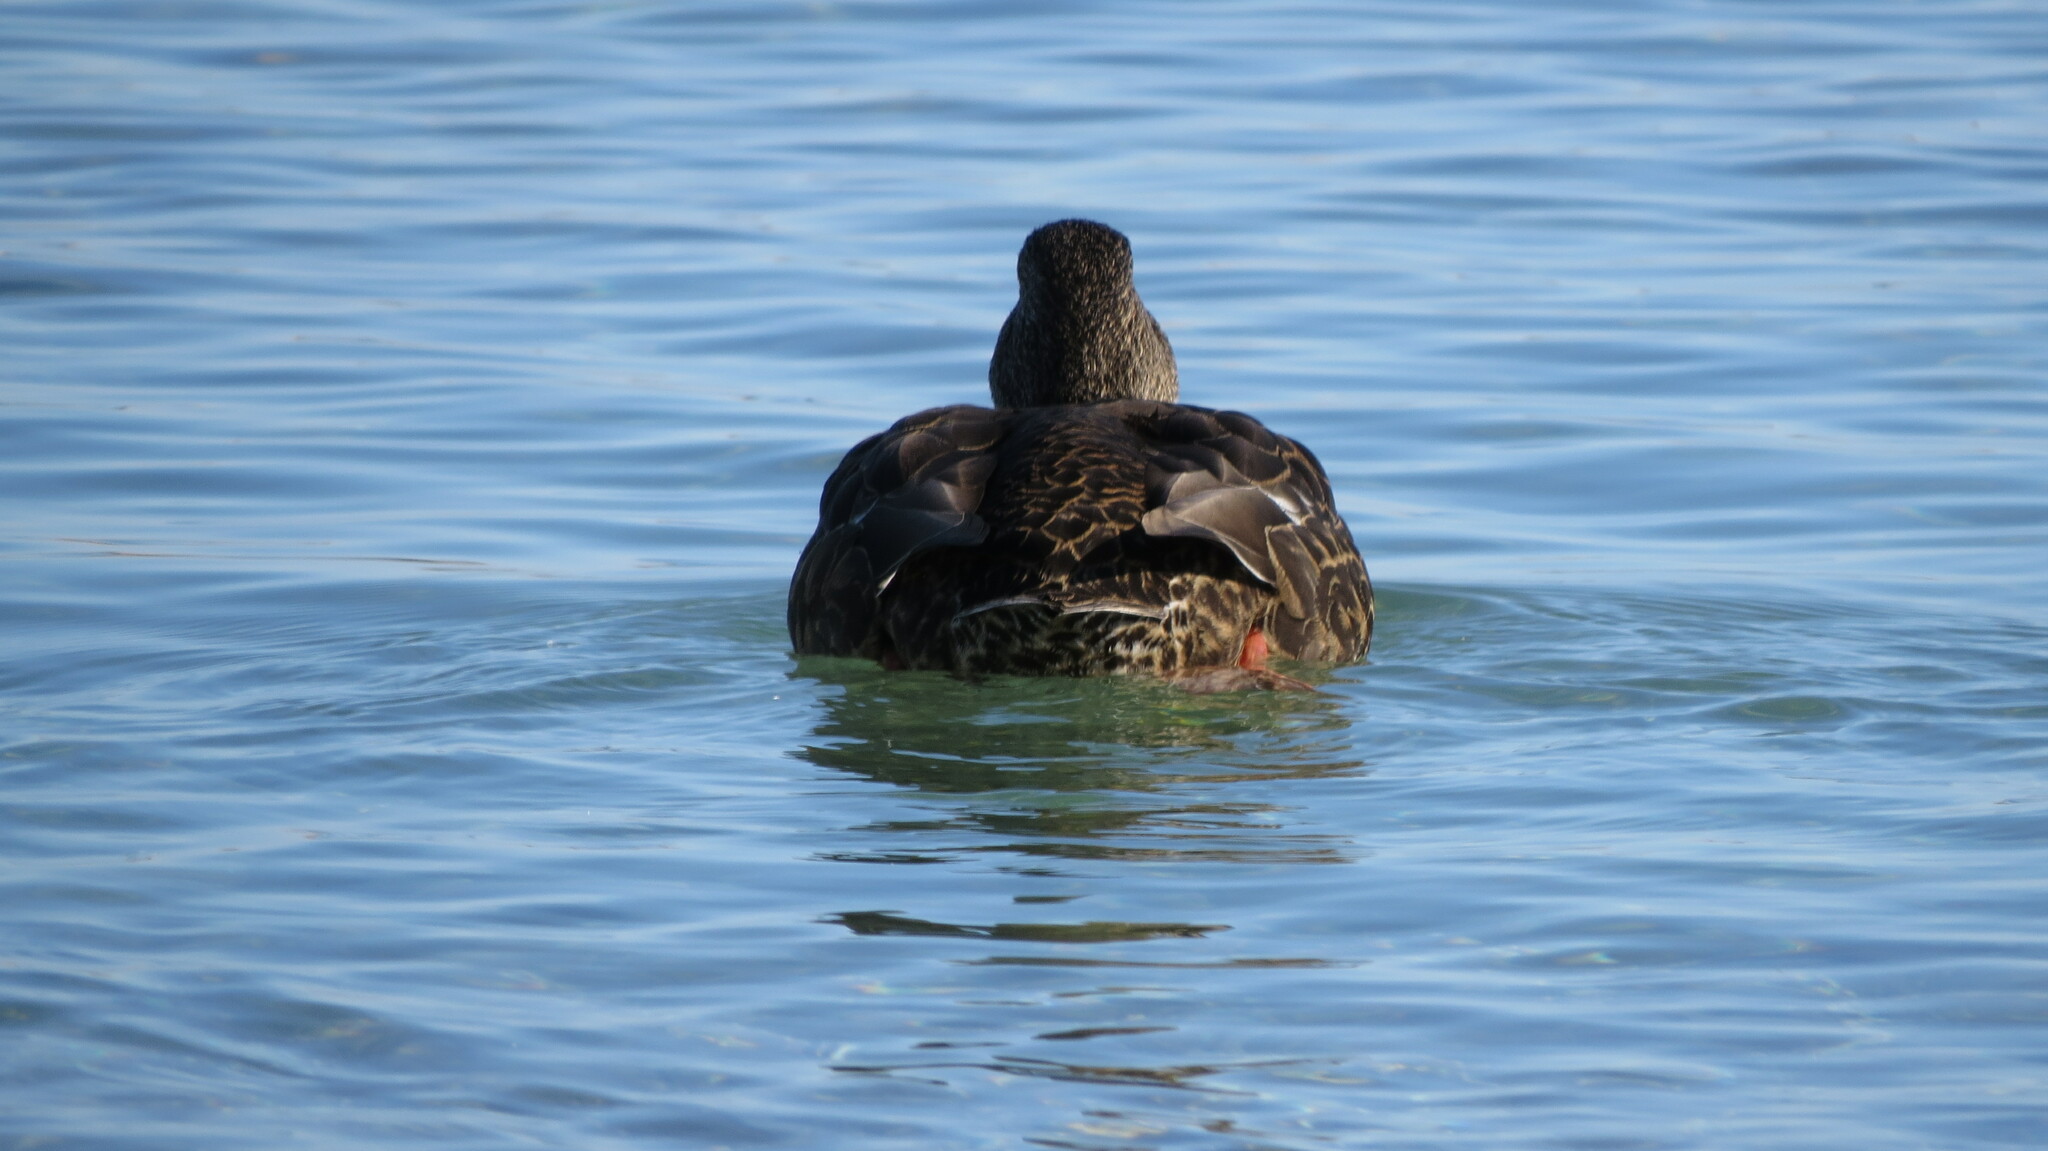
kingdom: Animalia
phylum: Chordata
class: Aves
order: Anseriformes
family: Anatidae
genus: Anas
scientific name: Anas
